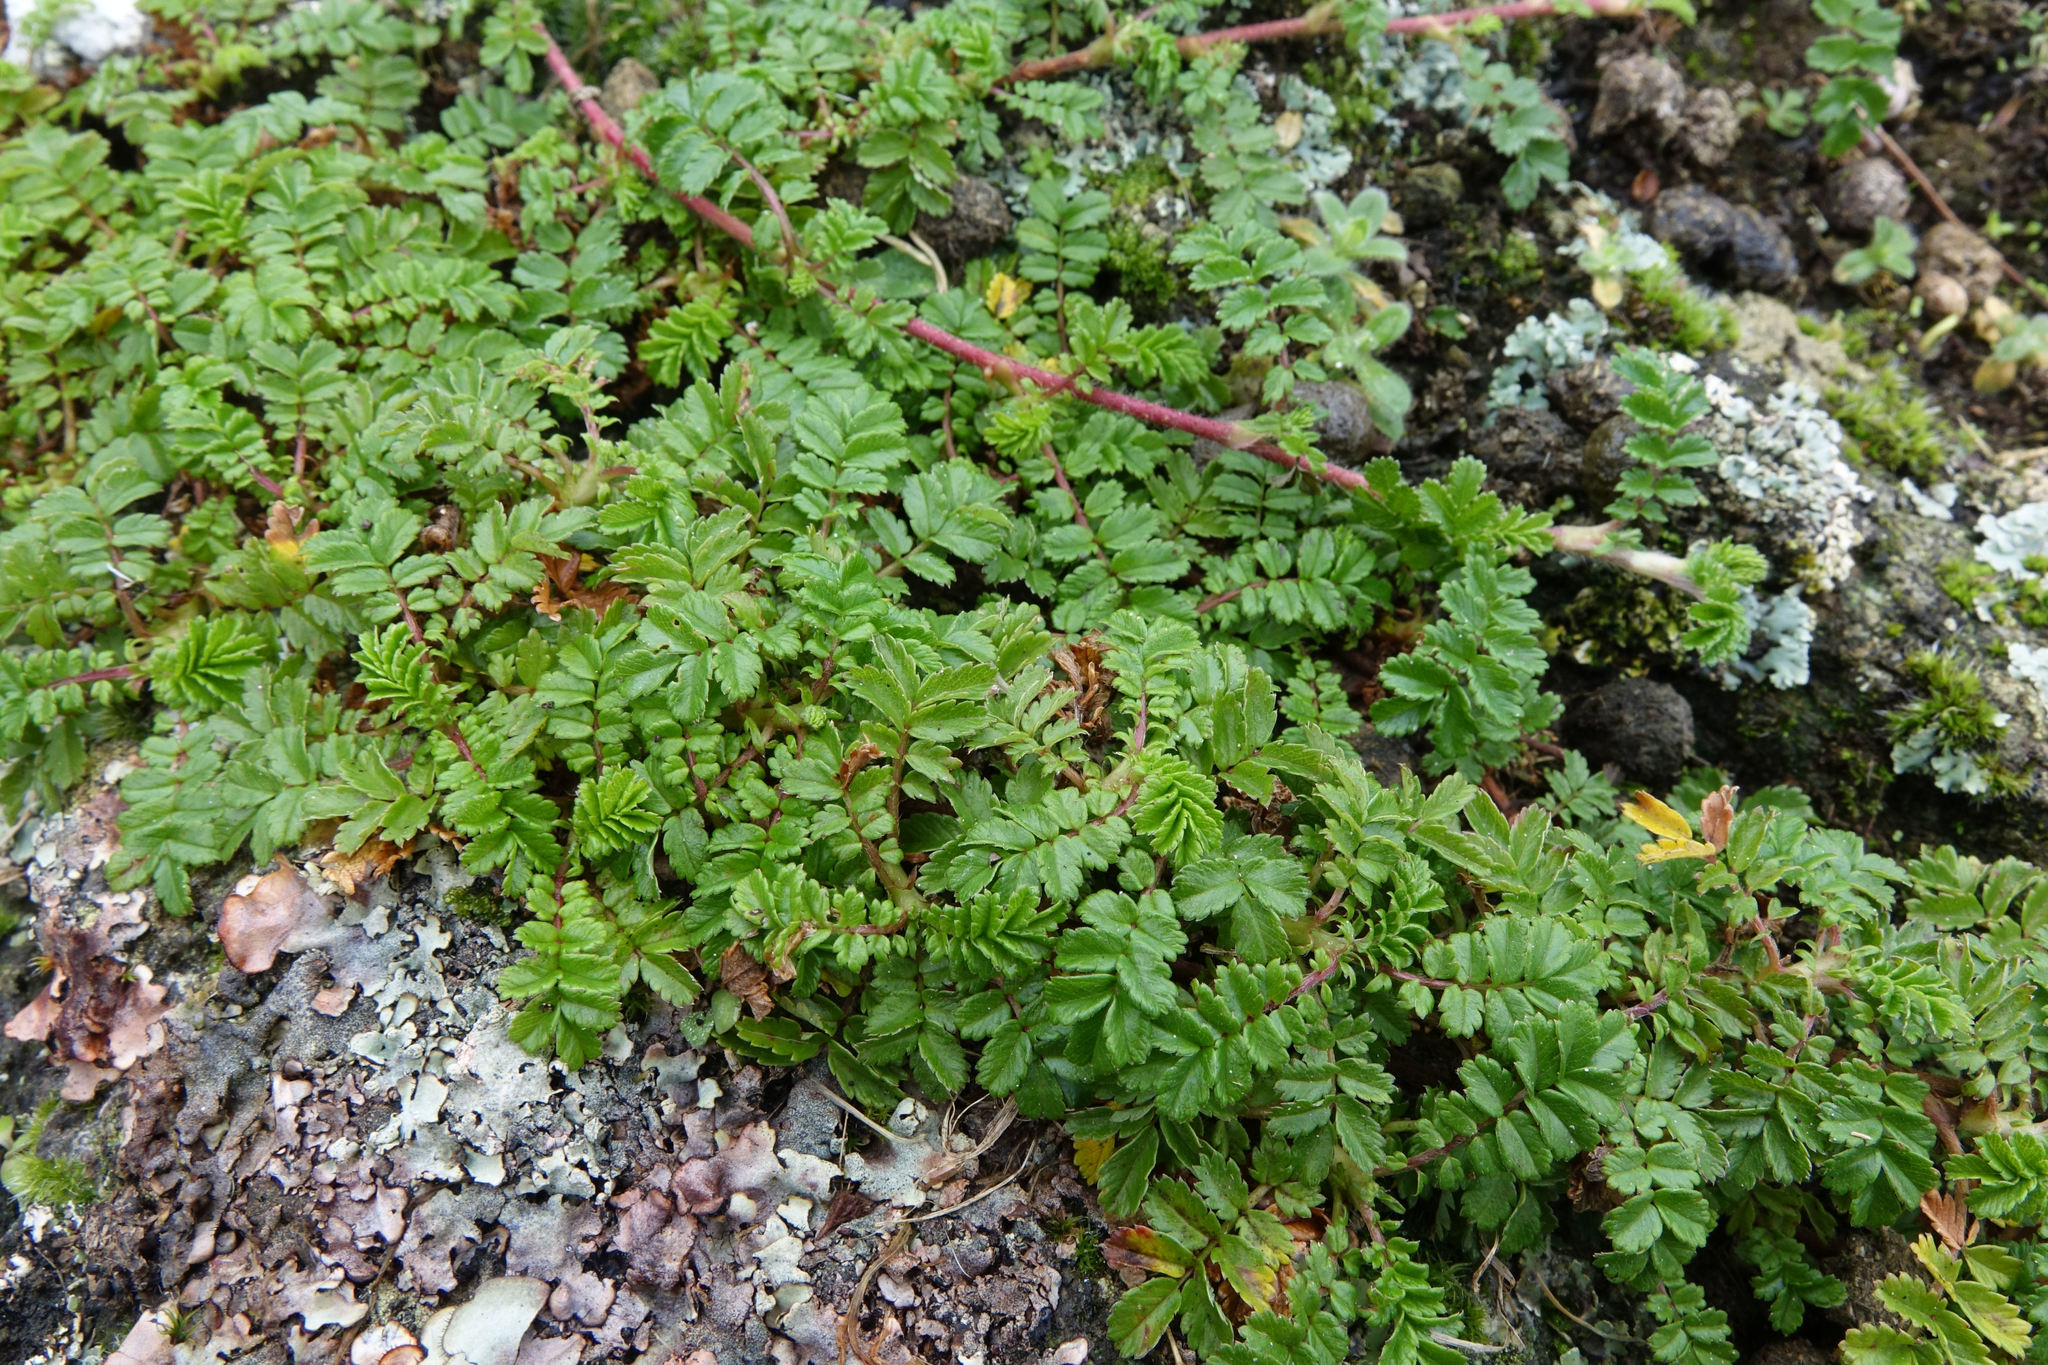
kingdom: Plantae
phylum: Tracheophyta
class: Magnoliopsida
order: Rosales
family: Rosaceae
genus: Acaena
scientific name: Acaena novae-zelandiae
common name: Pirri-pirri-bur
